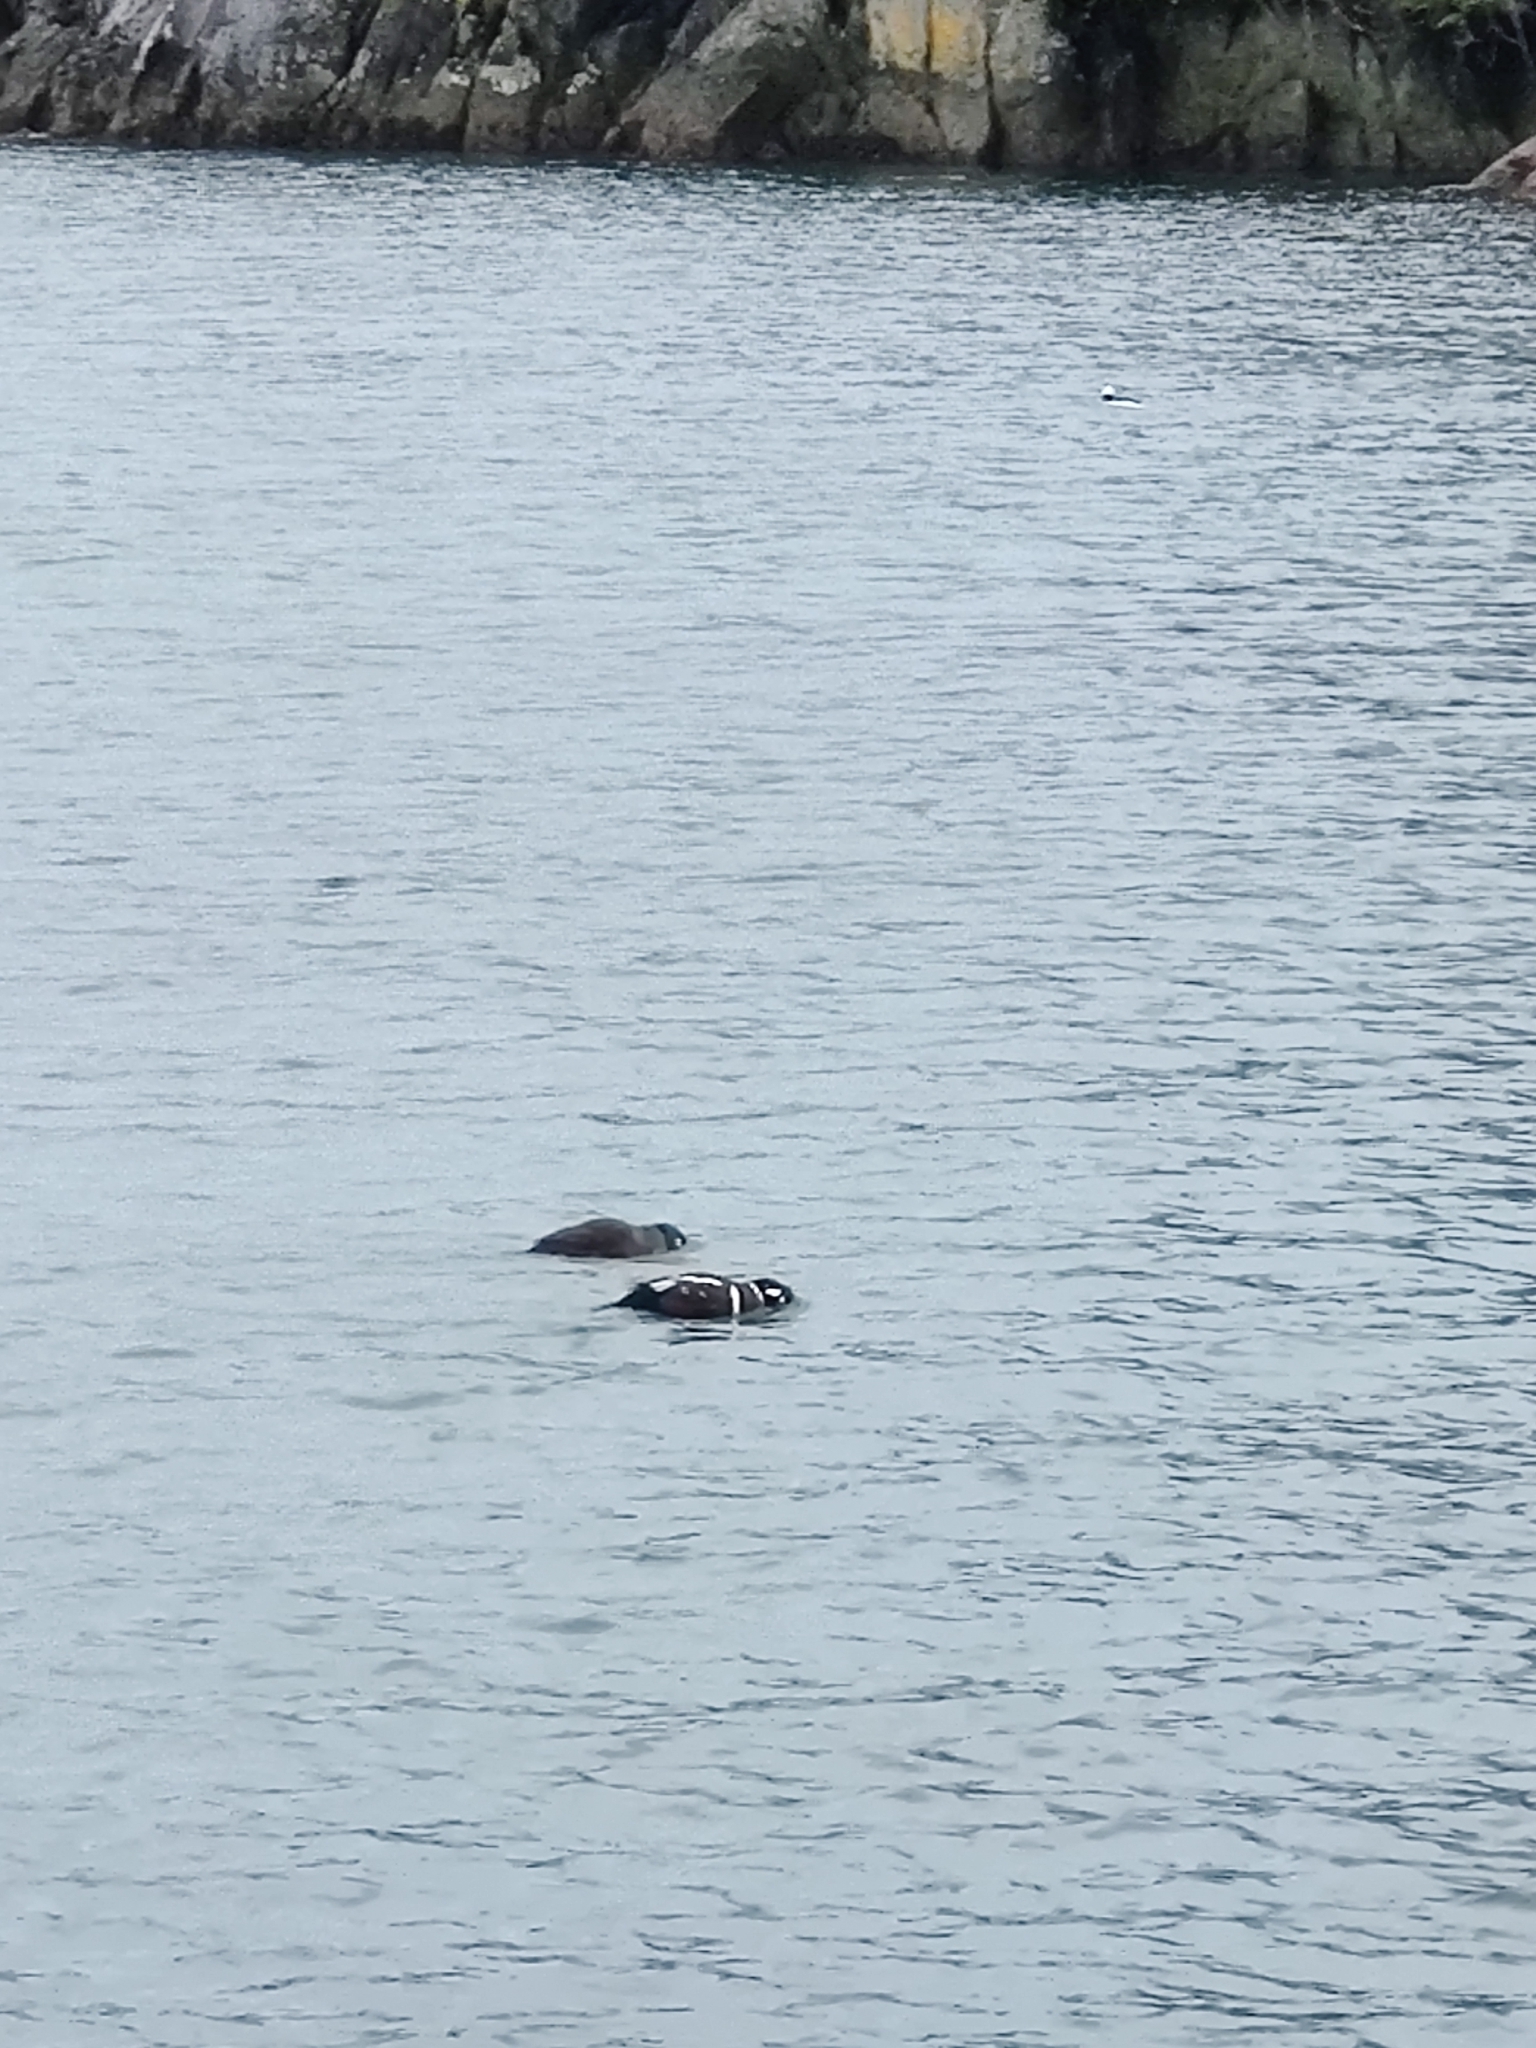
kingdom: Animalia
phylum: Chordata
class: Aves
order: Anseriformes
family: Anatidae
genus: Histrionicus
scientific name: Histrionicus histrionicus
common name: Harlequin duck
